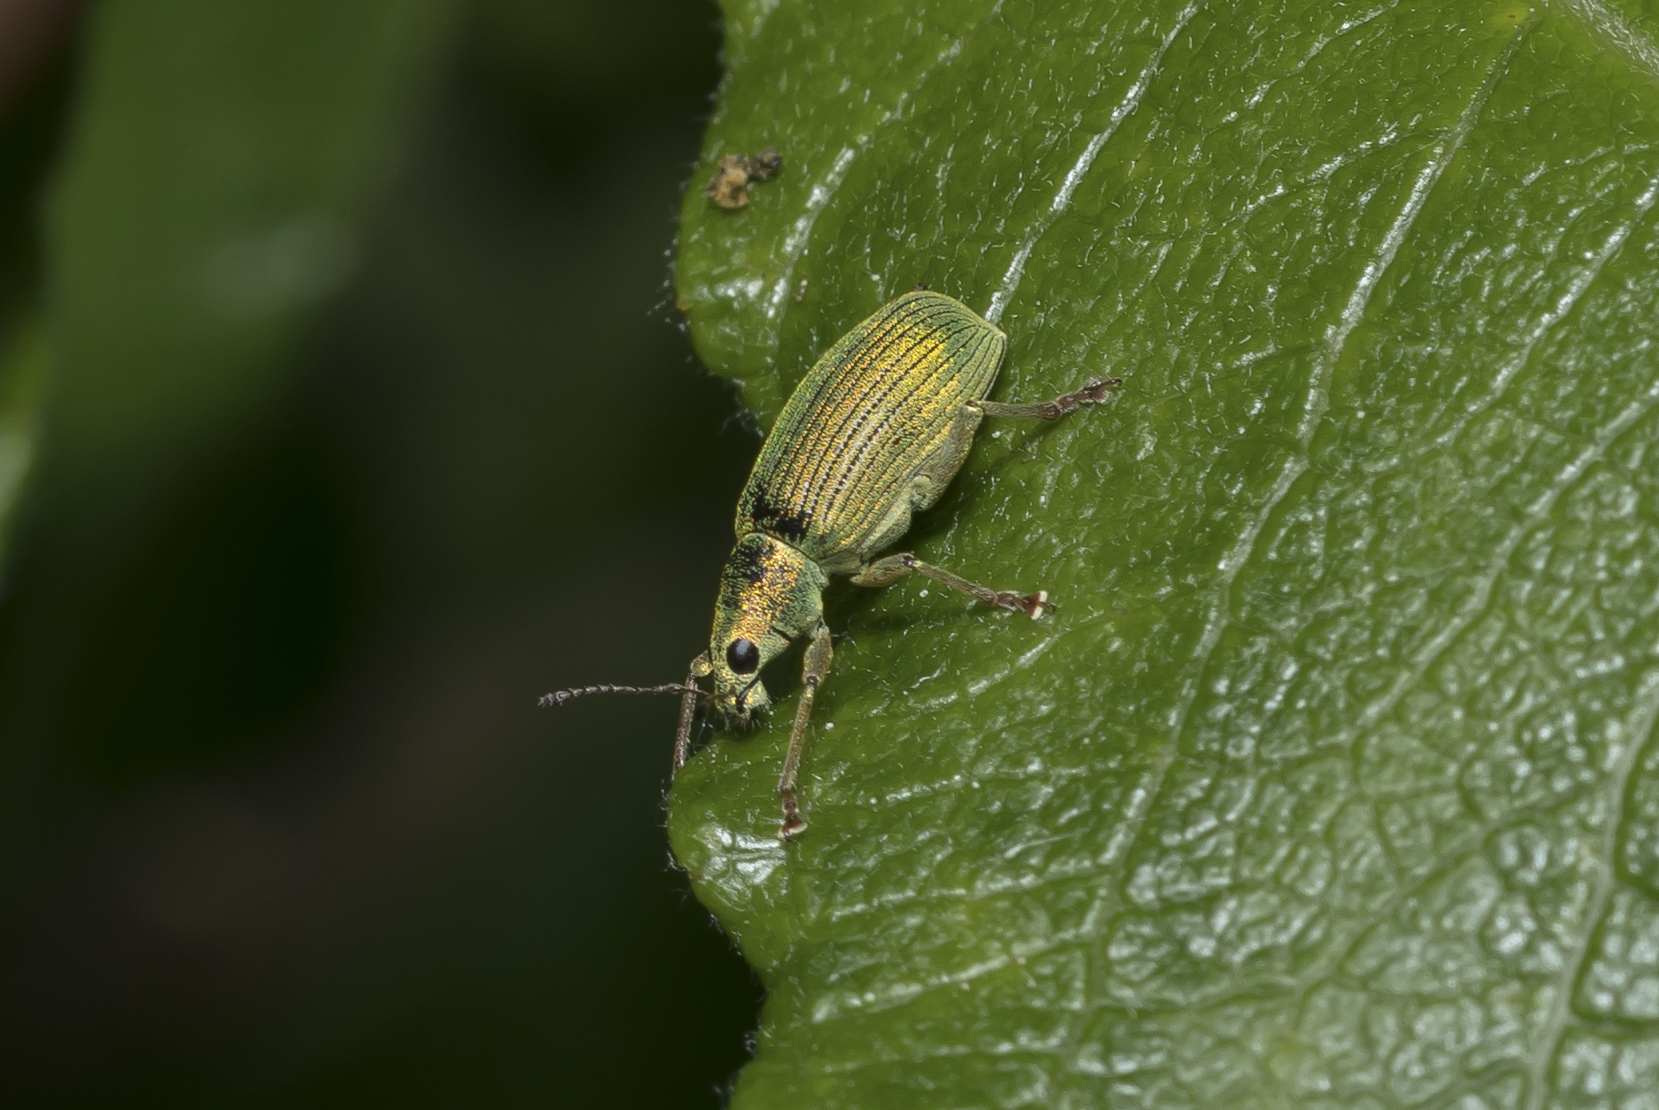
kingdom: Animalia
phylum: Arthropoda
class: Insecta
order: Coleoptera
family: Curculionidae
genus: Polydrusus
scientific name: Polydrusus formosus
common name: Weevil
